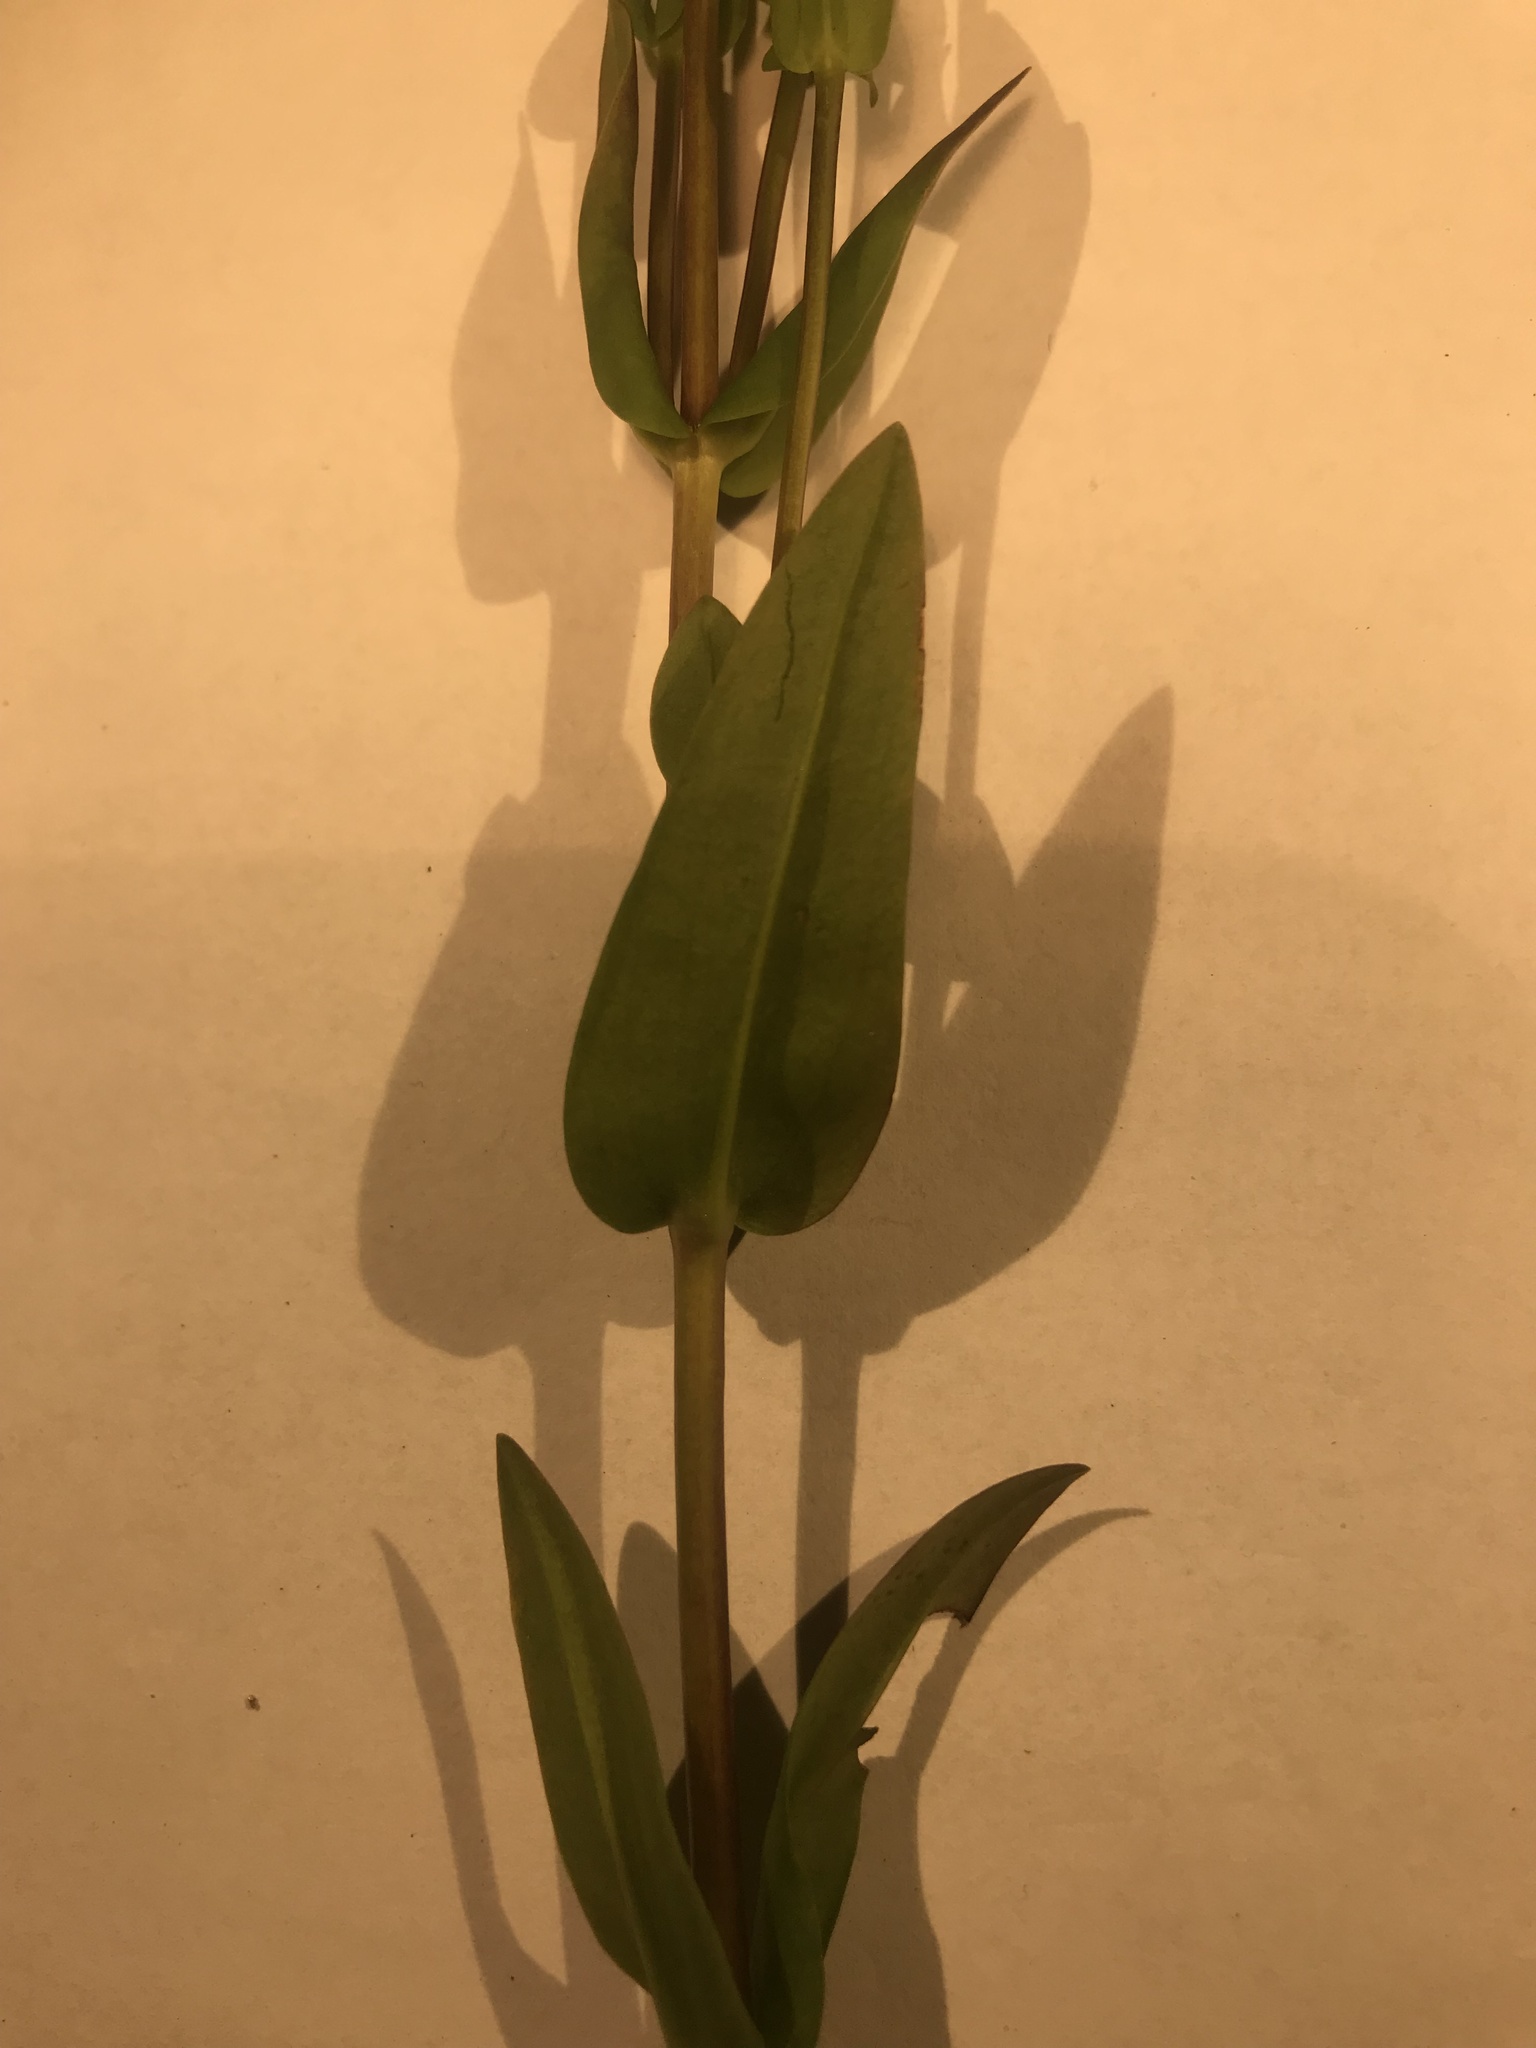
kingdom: Plantae
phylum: Tracheophyta
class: Magnoliopsida
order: Gentianales
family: Gentianaceae
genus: Gentianopsis
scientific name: Gentianopsis crinita
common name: Fringed-gentian
